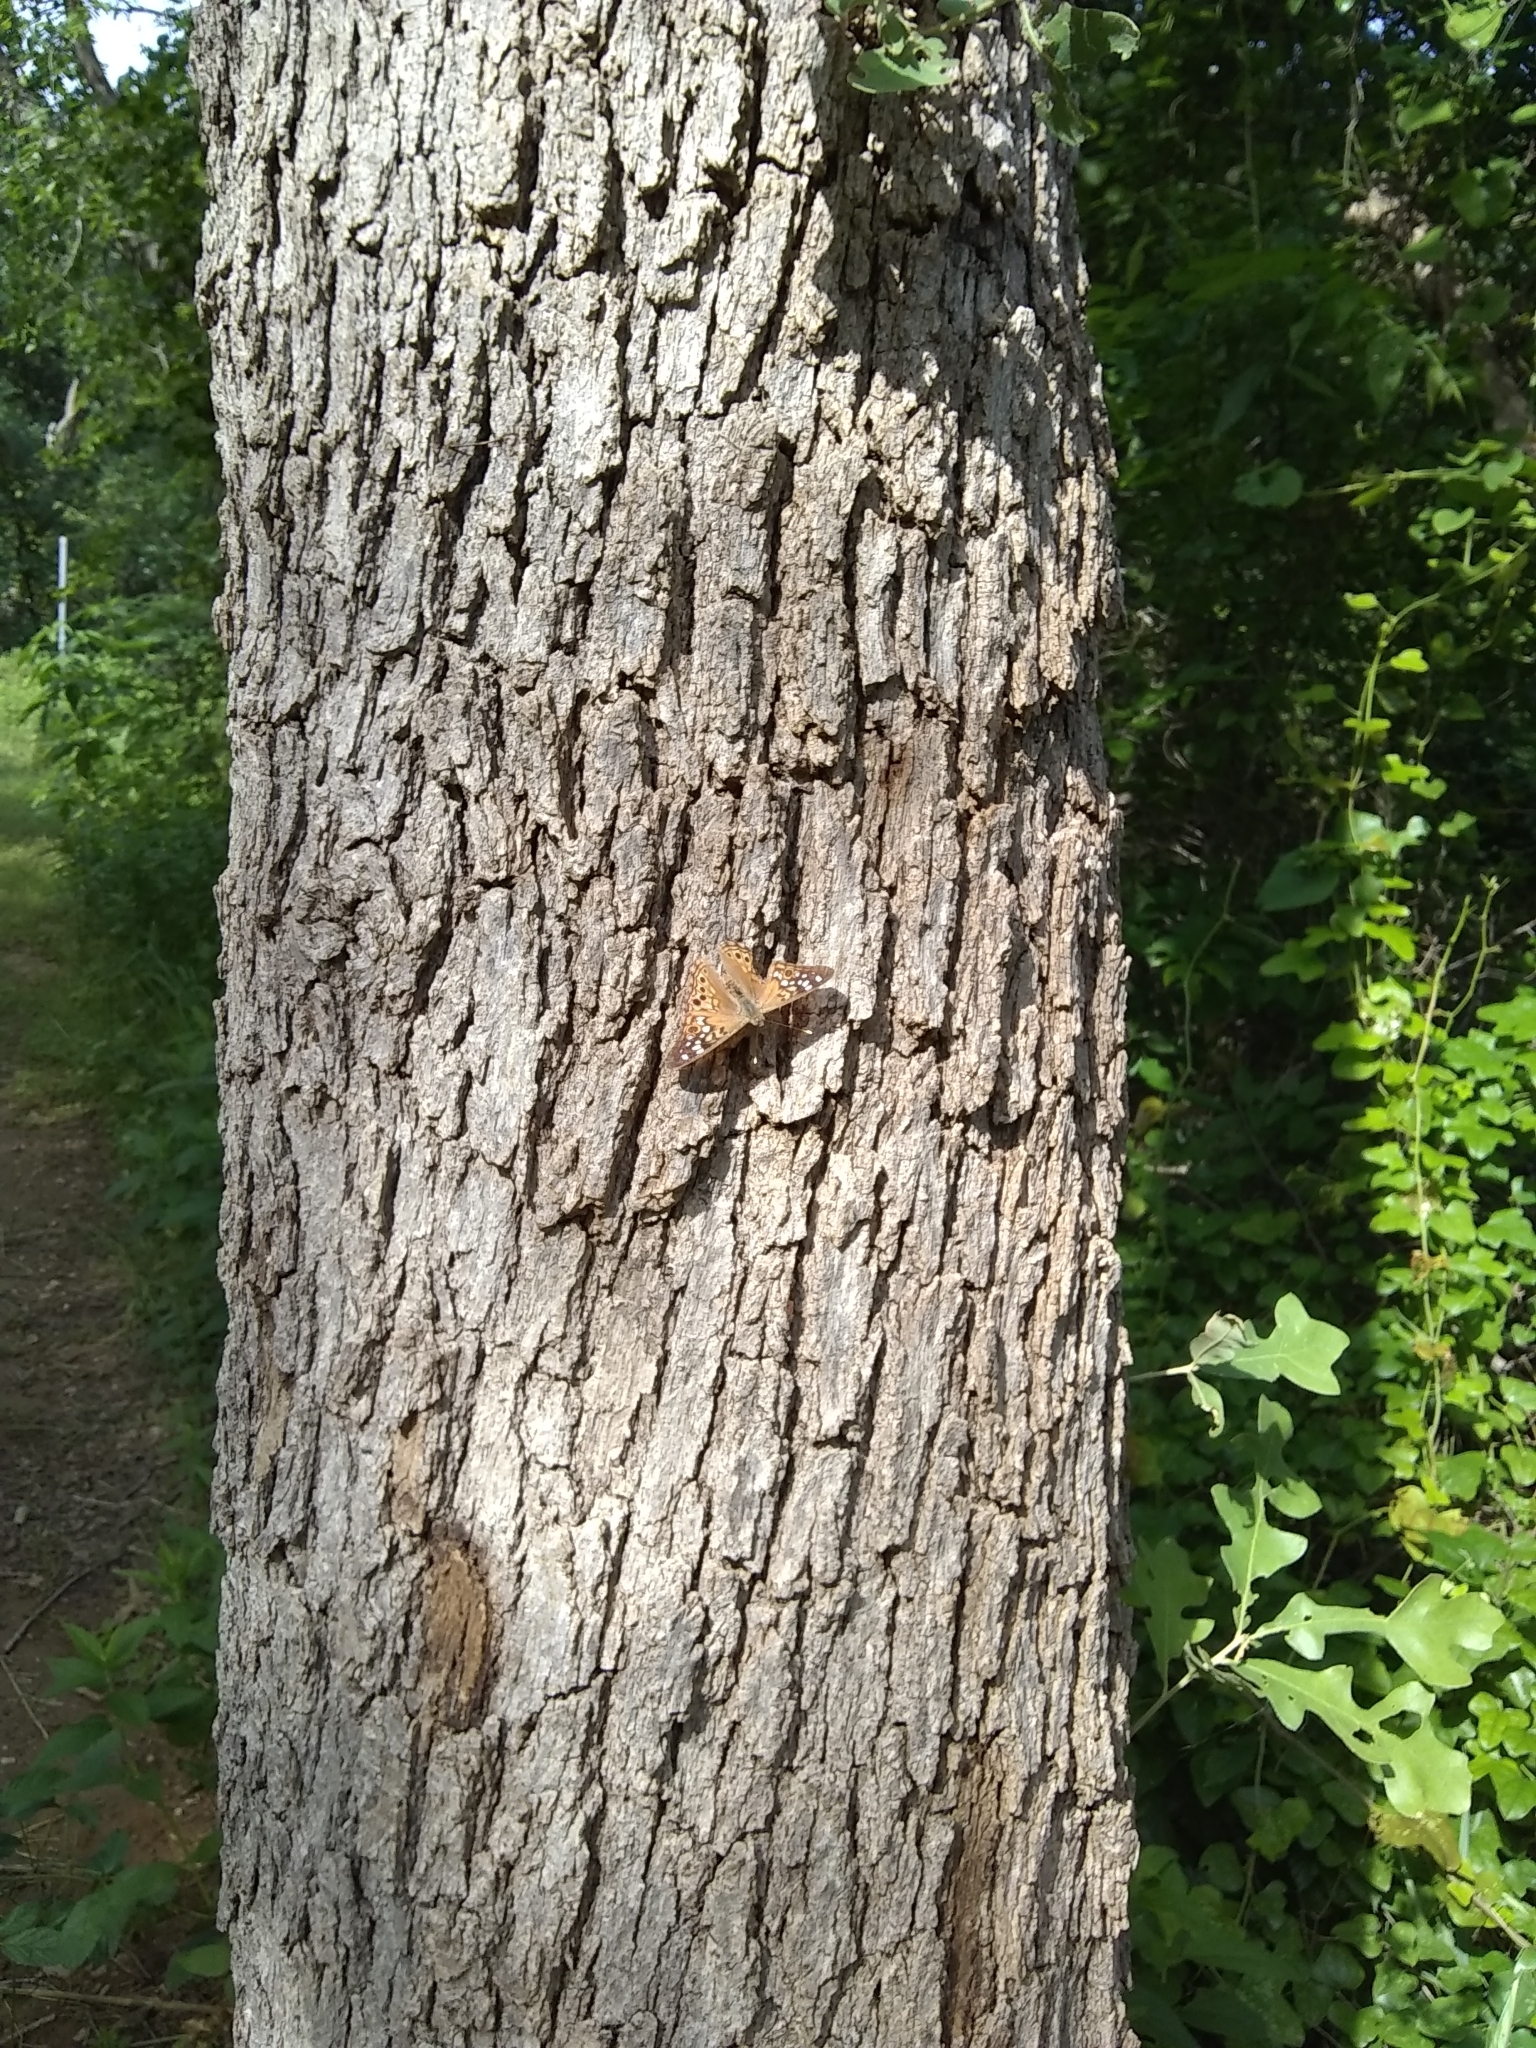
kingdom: Animalia
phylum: Arthropoda
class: Insecta
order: Lepidoptera
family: Nymphalidae
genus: Asterocampa
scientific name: Asterocampa celtis
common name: Hackberry emperor
